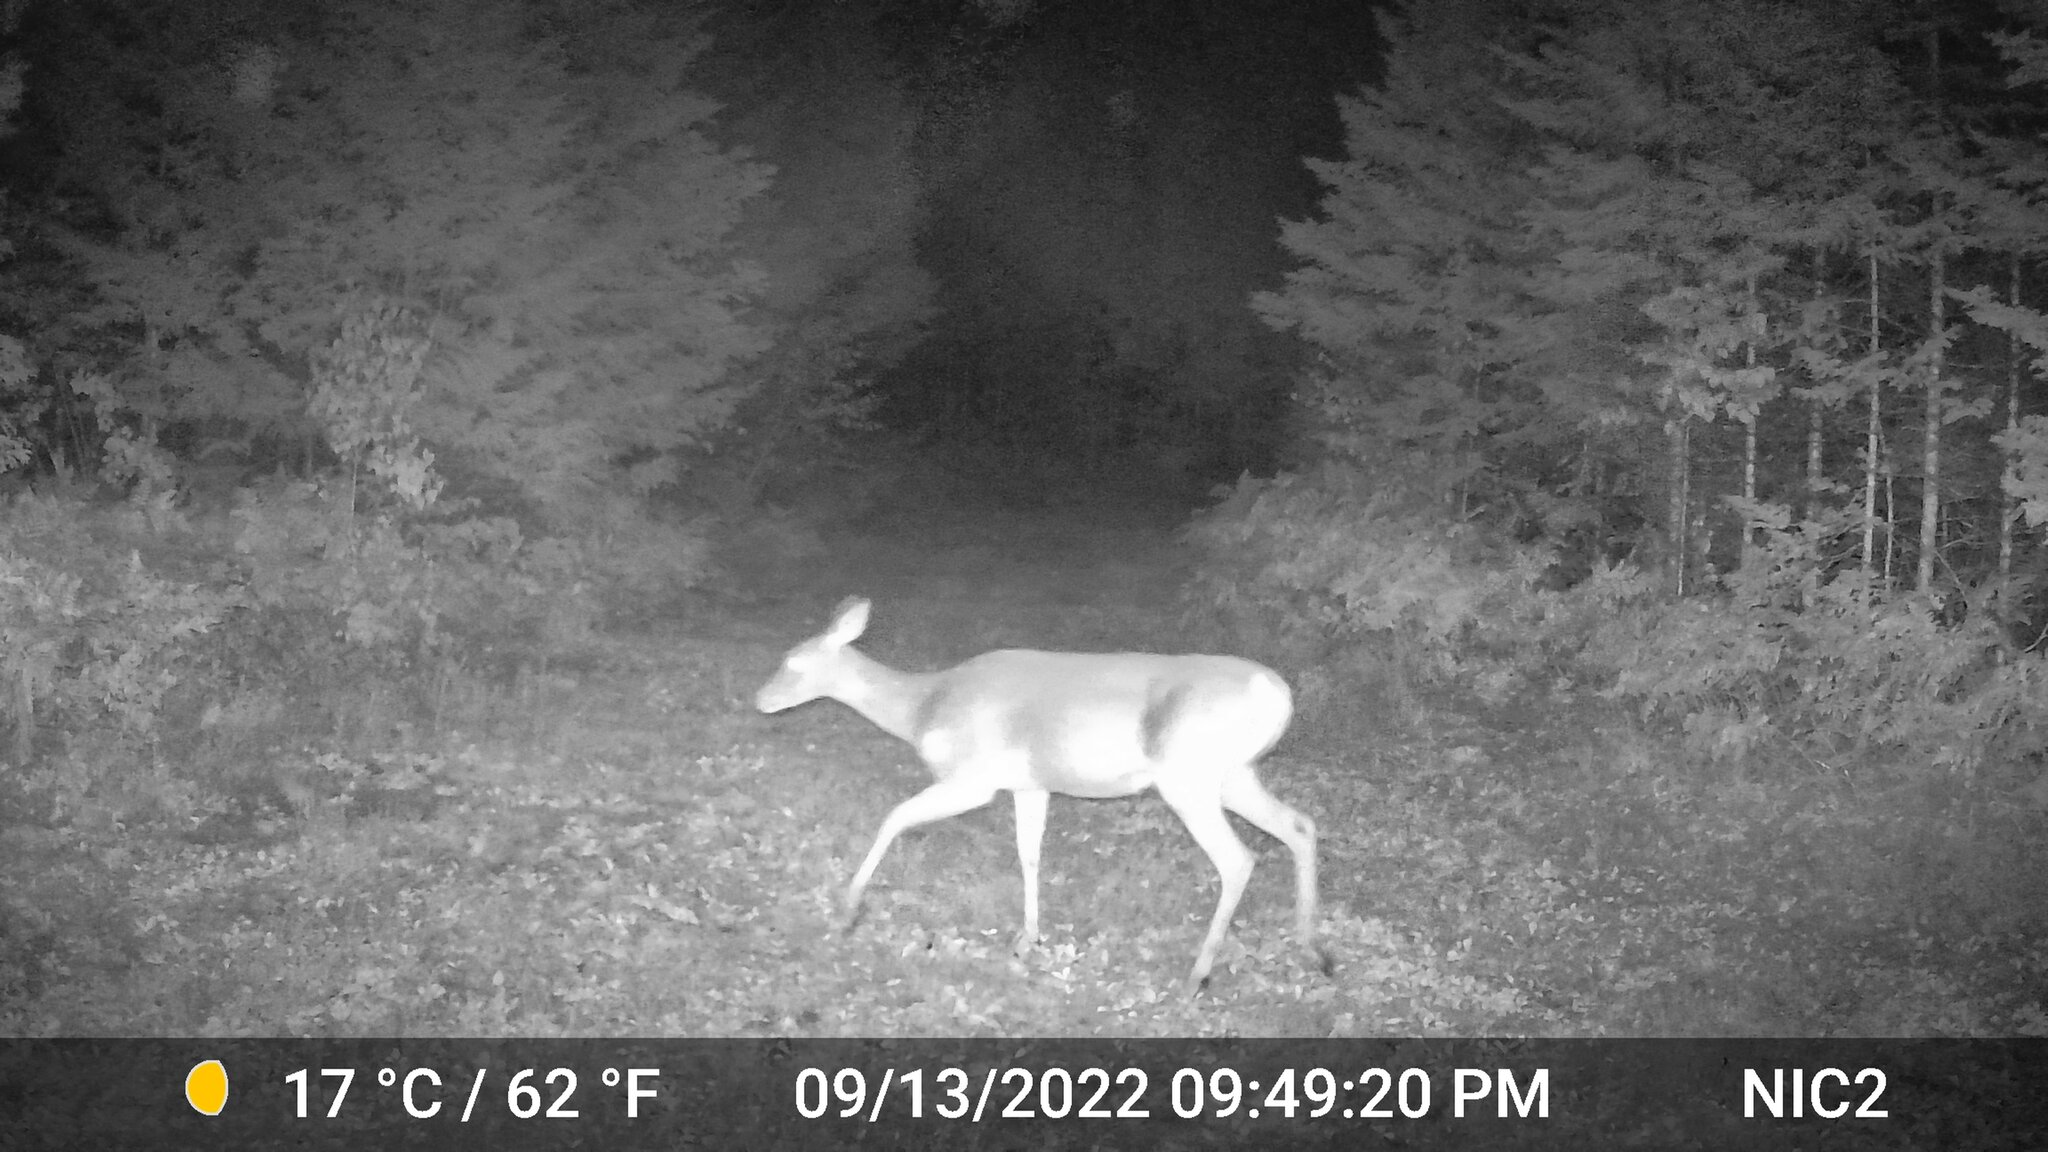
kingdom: Animalia
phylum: Chordata
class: Mammalia
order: Artiodactyla
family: Cervidae
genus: Odocoileus
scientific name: Odocoileus virginianus
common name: White-tailed deer
